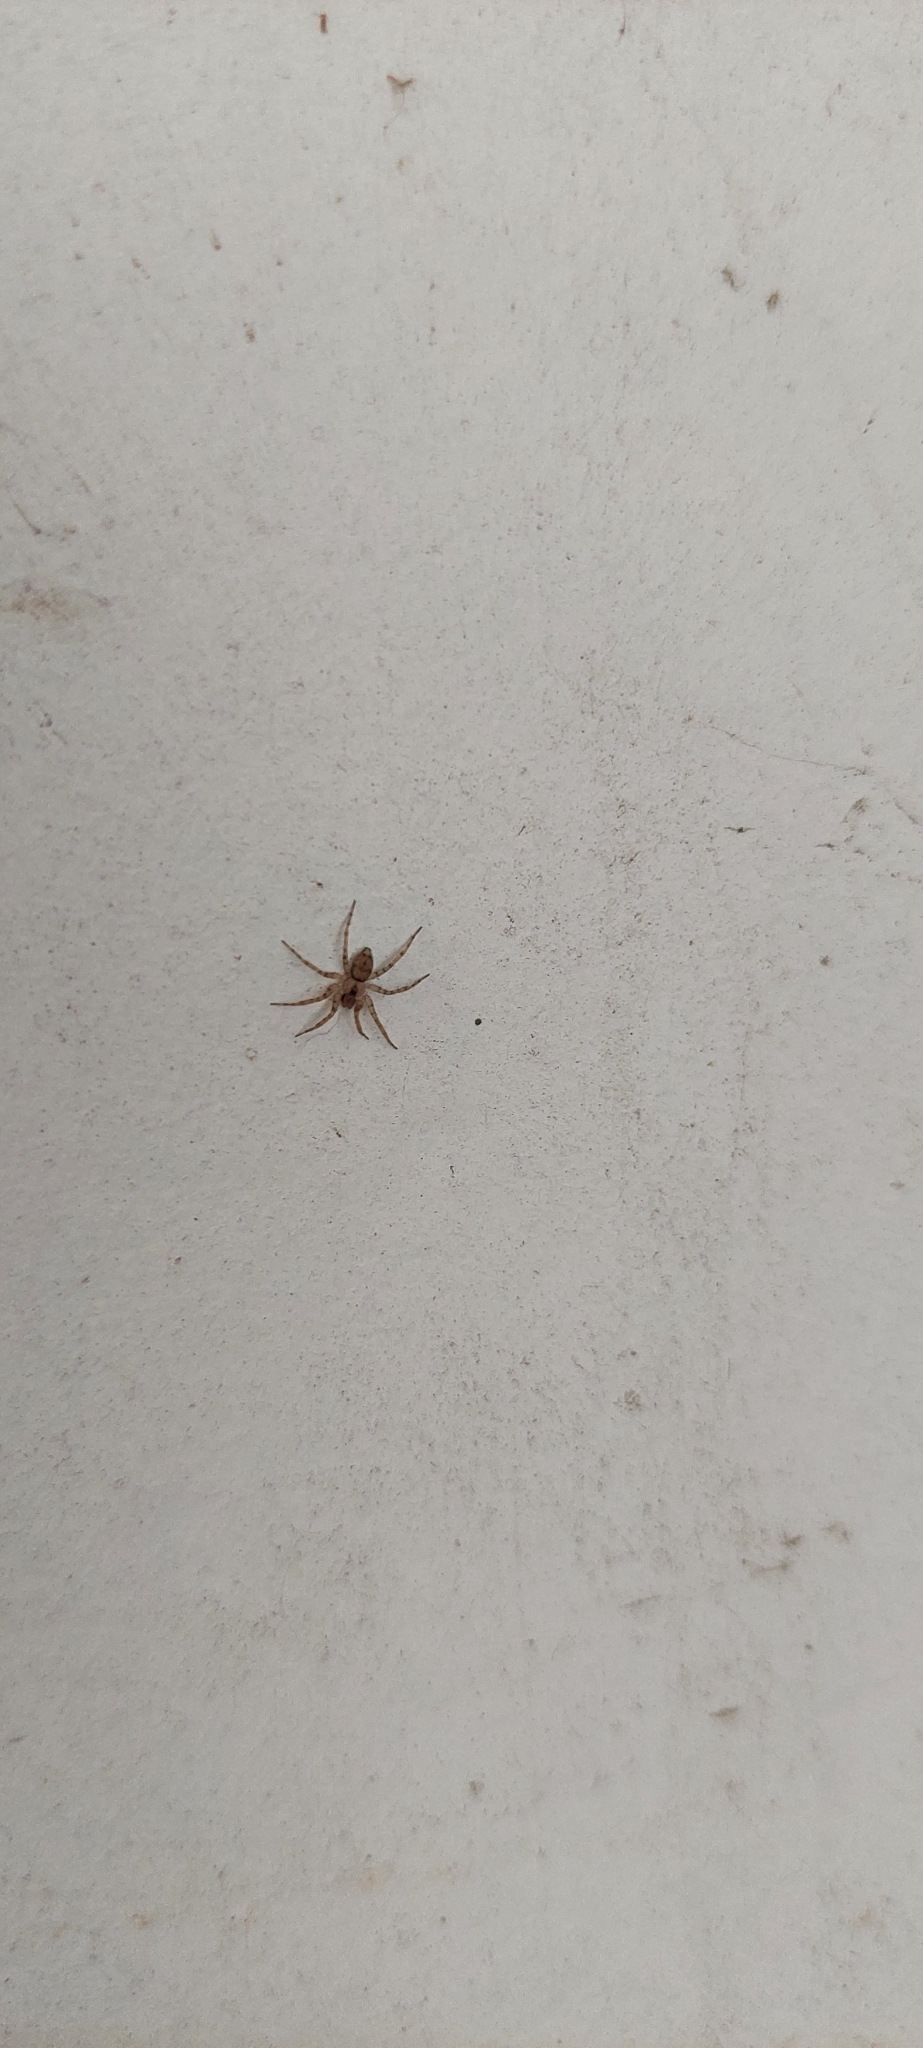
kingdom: Animalia
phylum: Arthropoda
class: Arachnida
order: Araneae
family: Oecobiidae
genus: Oecobius
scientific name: Oecobius navus
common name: Flatmesh weaver
